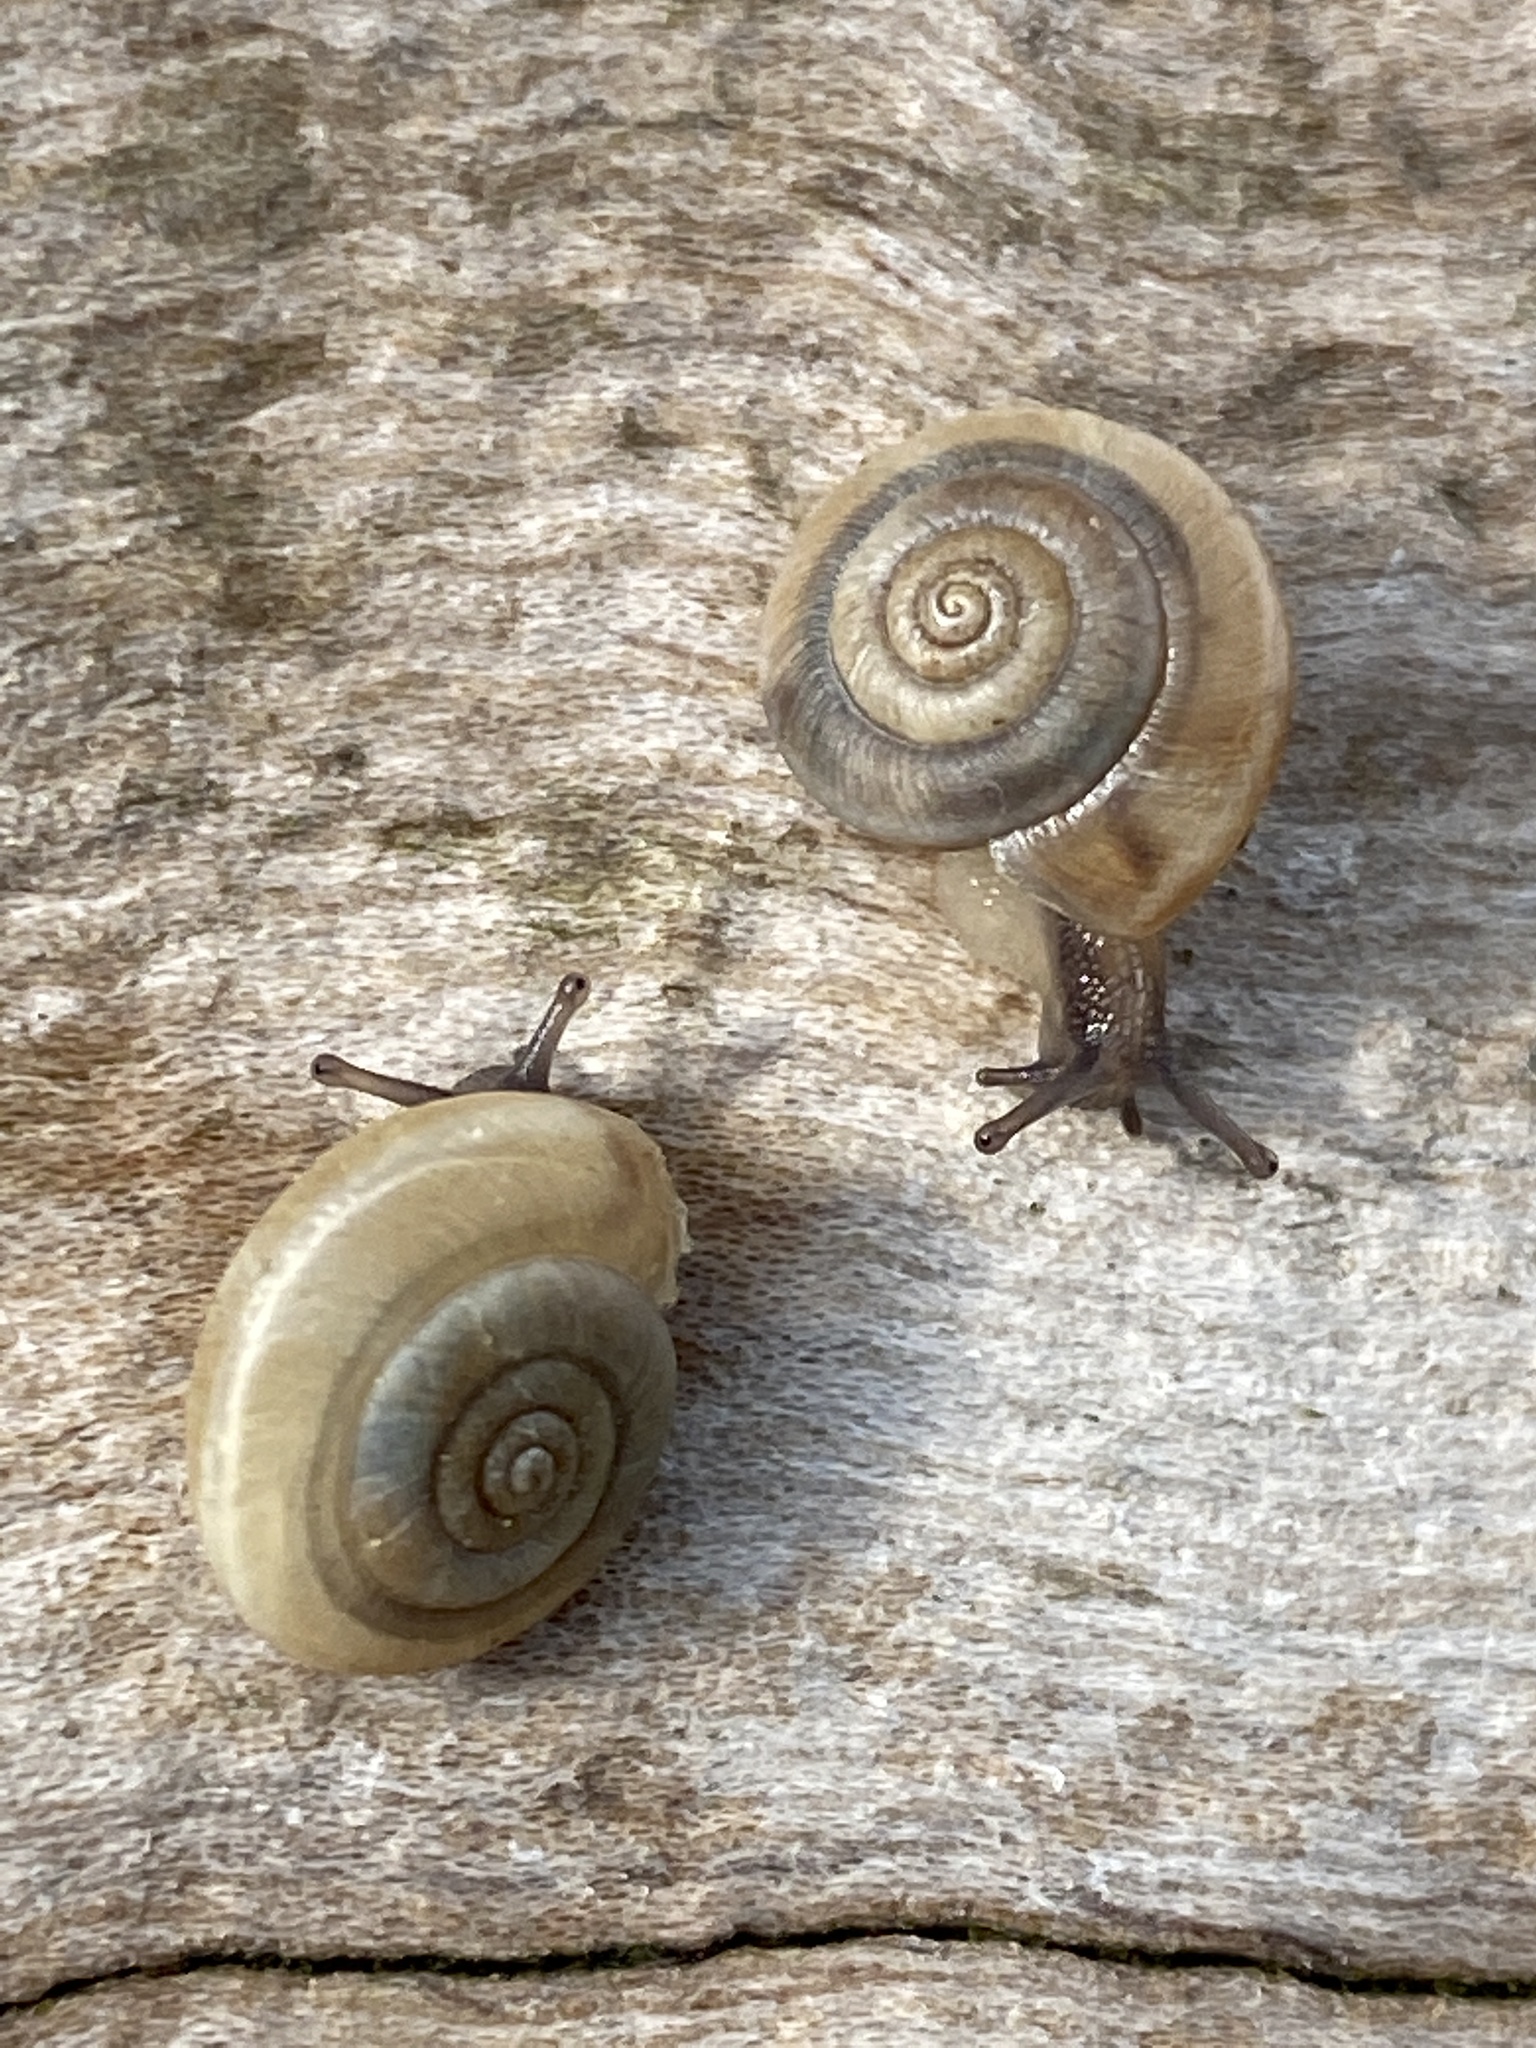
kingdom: Animalia
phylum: Mollusca
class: Gastropoda
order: Stylommatophora
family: Hygromiidae
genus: Trochulus
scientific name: Trochulus striolatus
